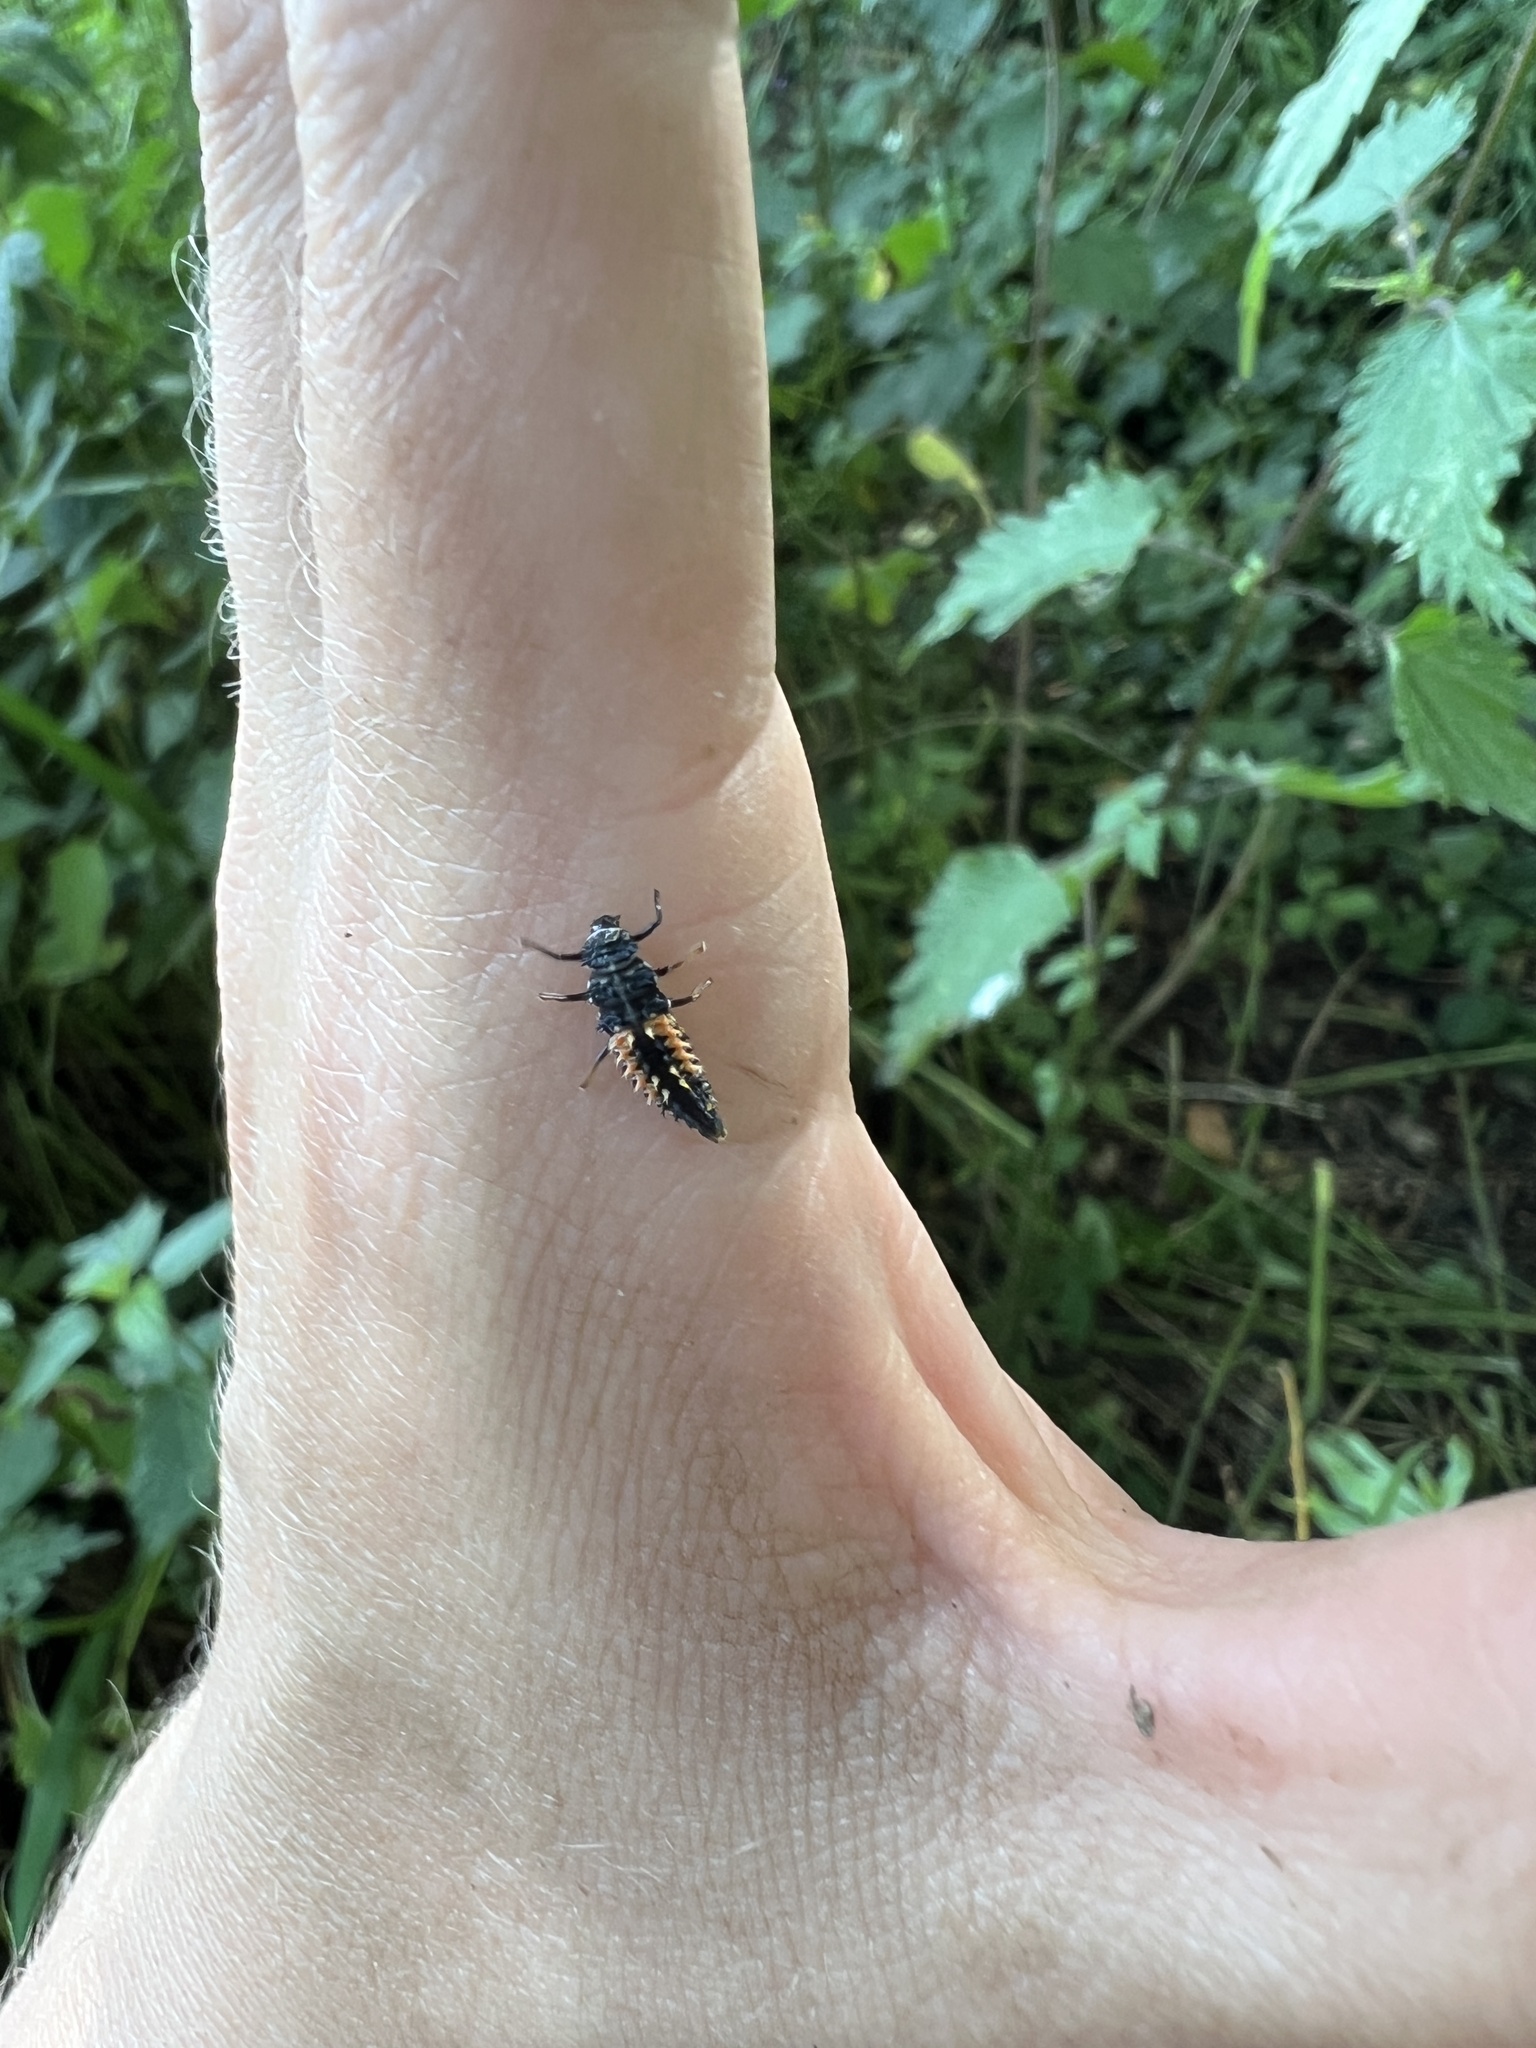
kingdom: Animalia
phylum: Arthropoda
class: Insecta
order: Coleoptera
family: Coccinellidae
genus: Harmonia
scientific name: Harmonia axyridis
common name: Harlequin ladybird
